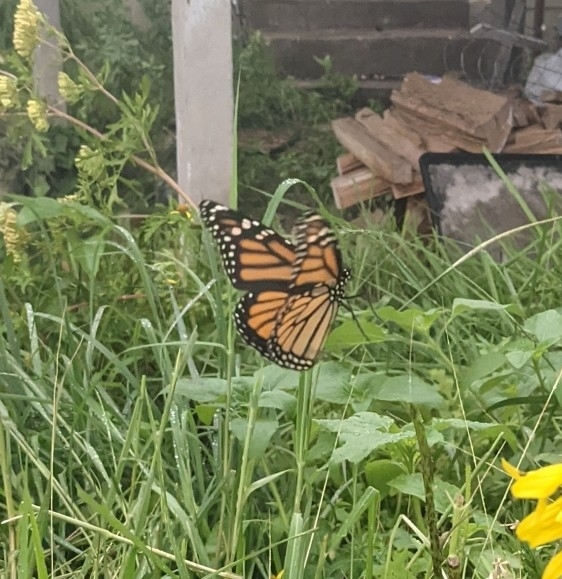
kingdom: Animalia
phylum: Arthropoda
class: Insecta
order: Lepidoptera
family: Nymphalidae
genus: Danaus
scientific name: Danaus plexippus
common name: Monarch
